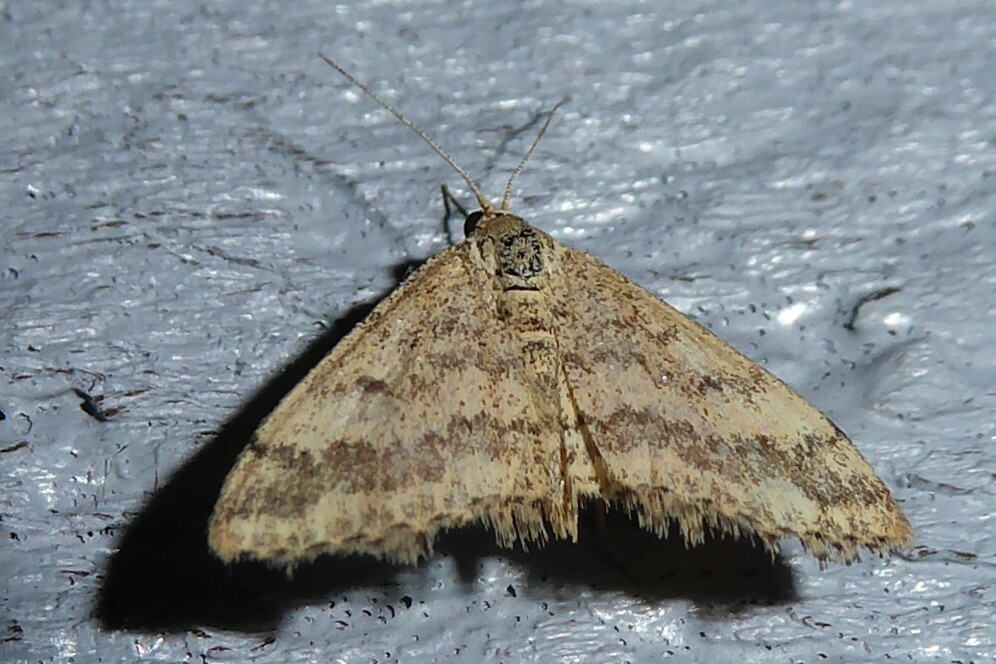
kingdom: Animalia
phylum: Arthropoda
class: Insecta
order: Lepidoptera
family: Geometridae
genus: Scopula
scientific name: Scopula rubraria
